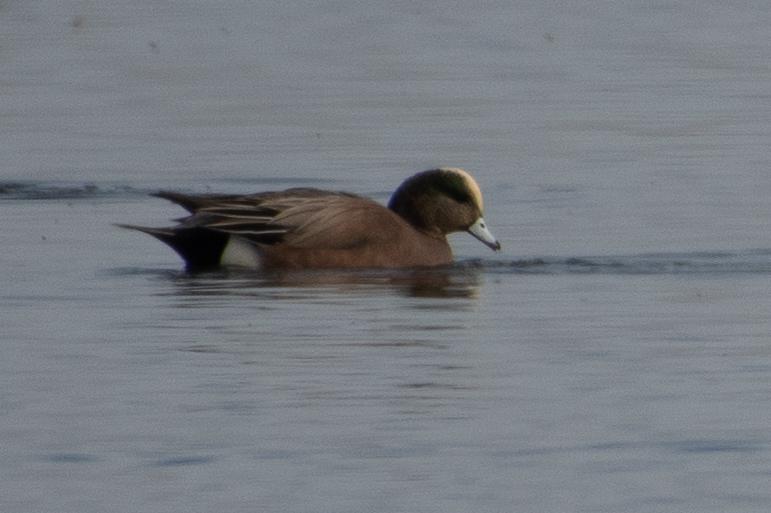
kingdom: Animalia
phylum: Chordata
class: Aves
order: Anseriformes
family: Anatidae
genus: Mareca
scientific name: Mareca americana
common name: American wigeon
